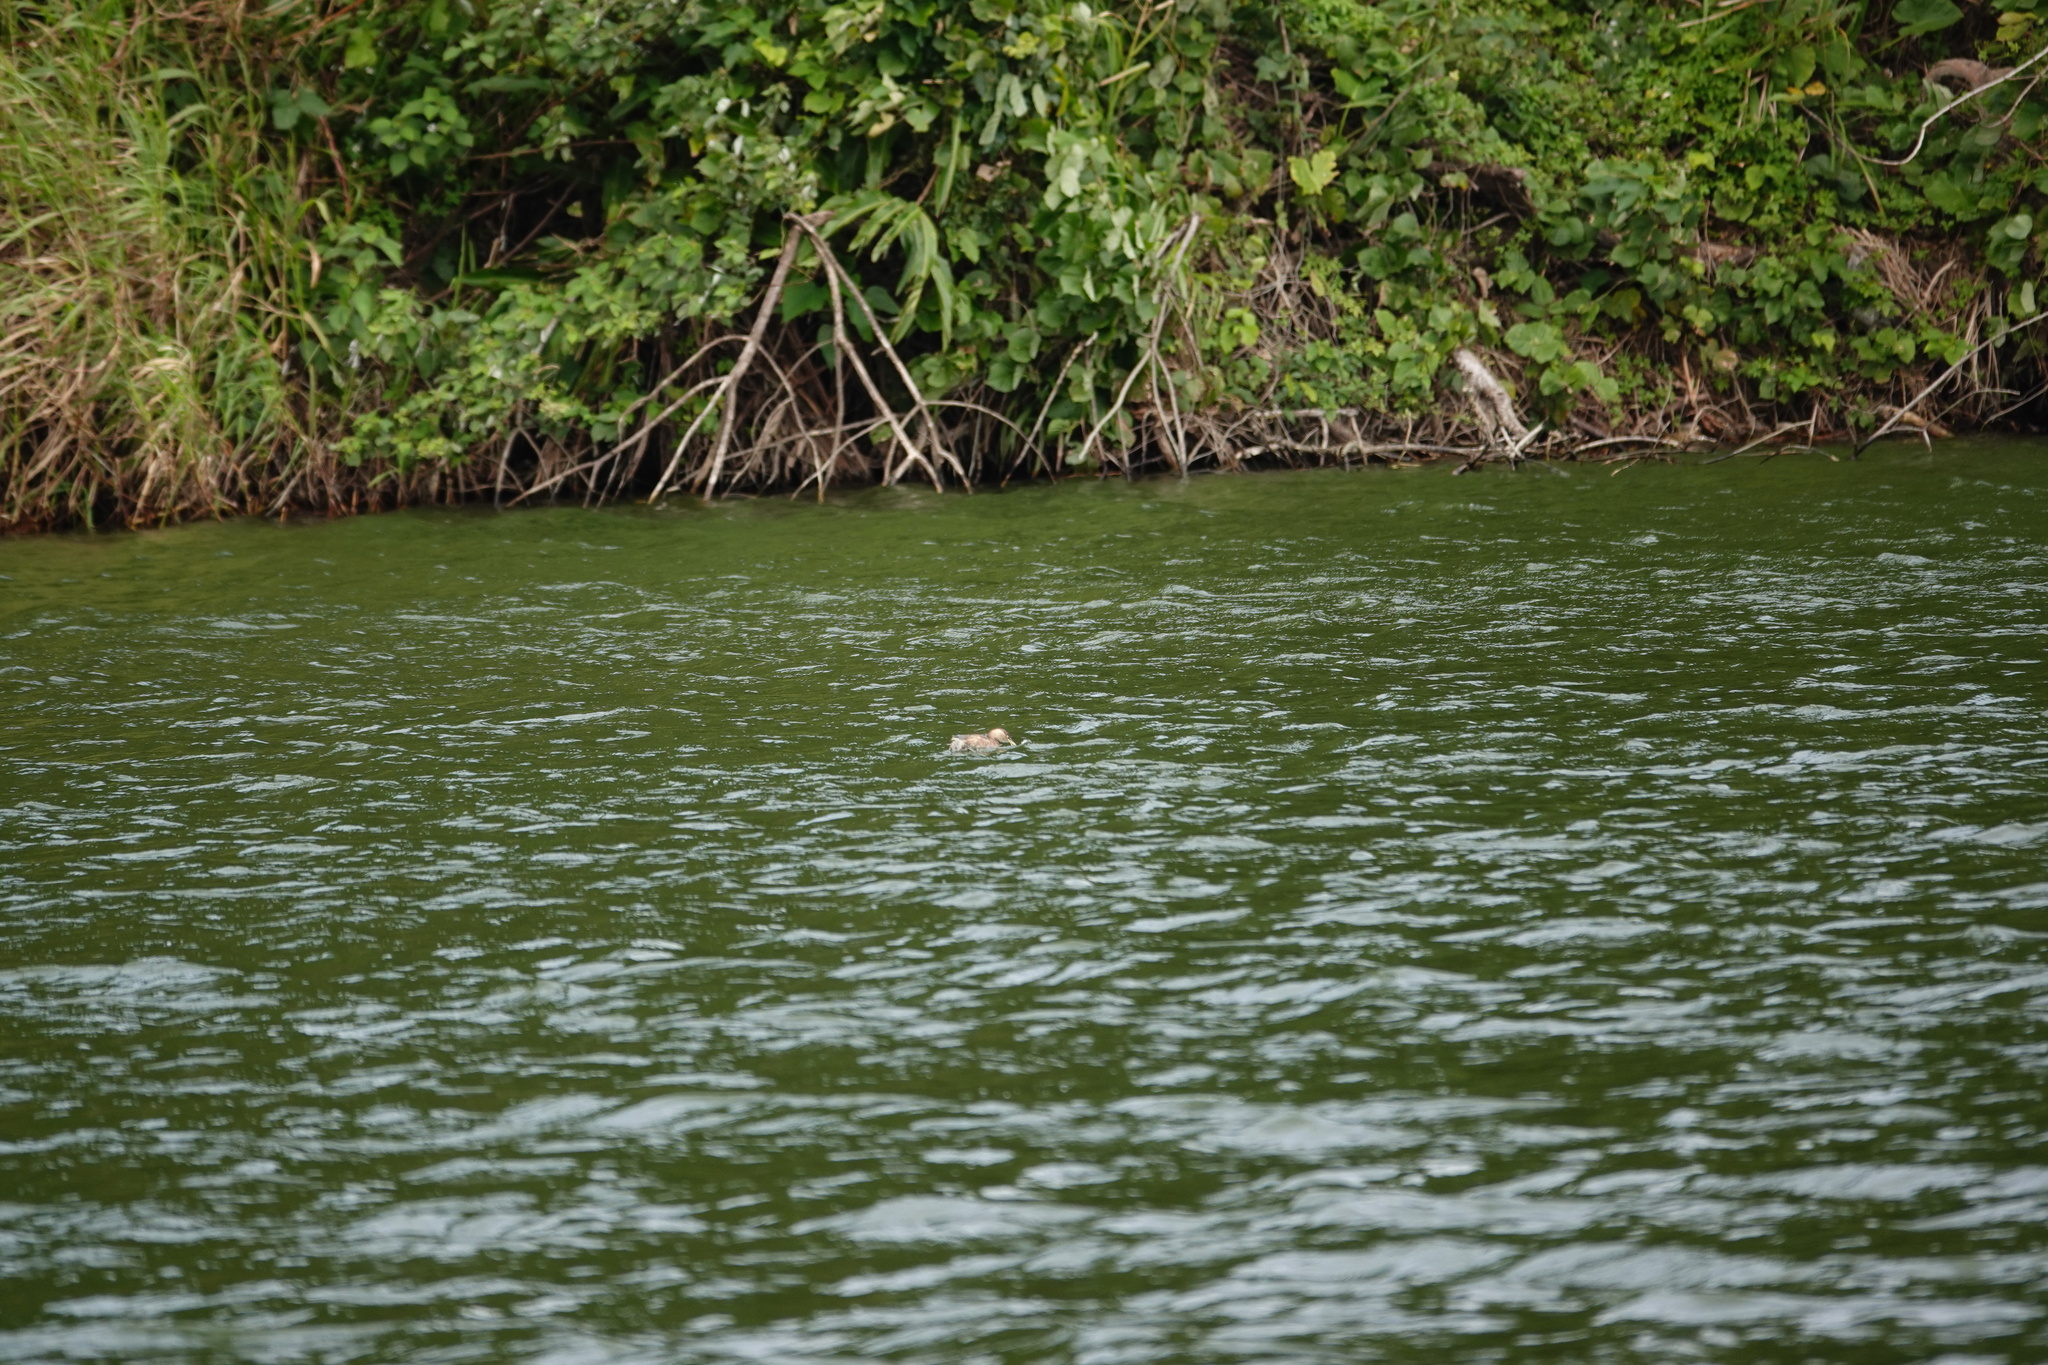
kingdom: Animalia
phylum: Chordata
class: Aves
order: Podicipediformes
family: Podicipedidae
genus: Tachybaptus
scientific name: Tachybaptus ruficollis
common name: Little grebe
